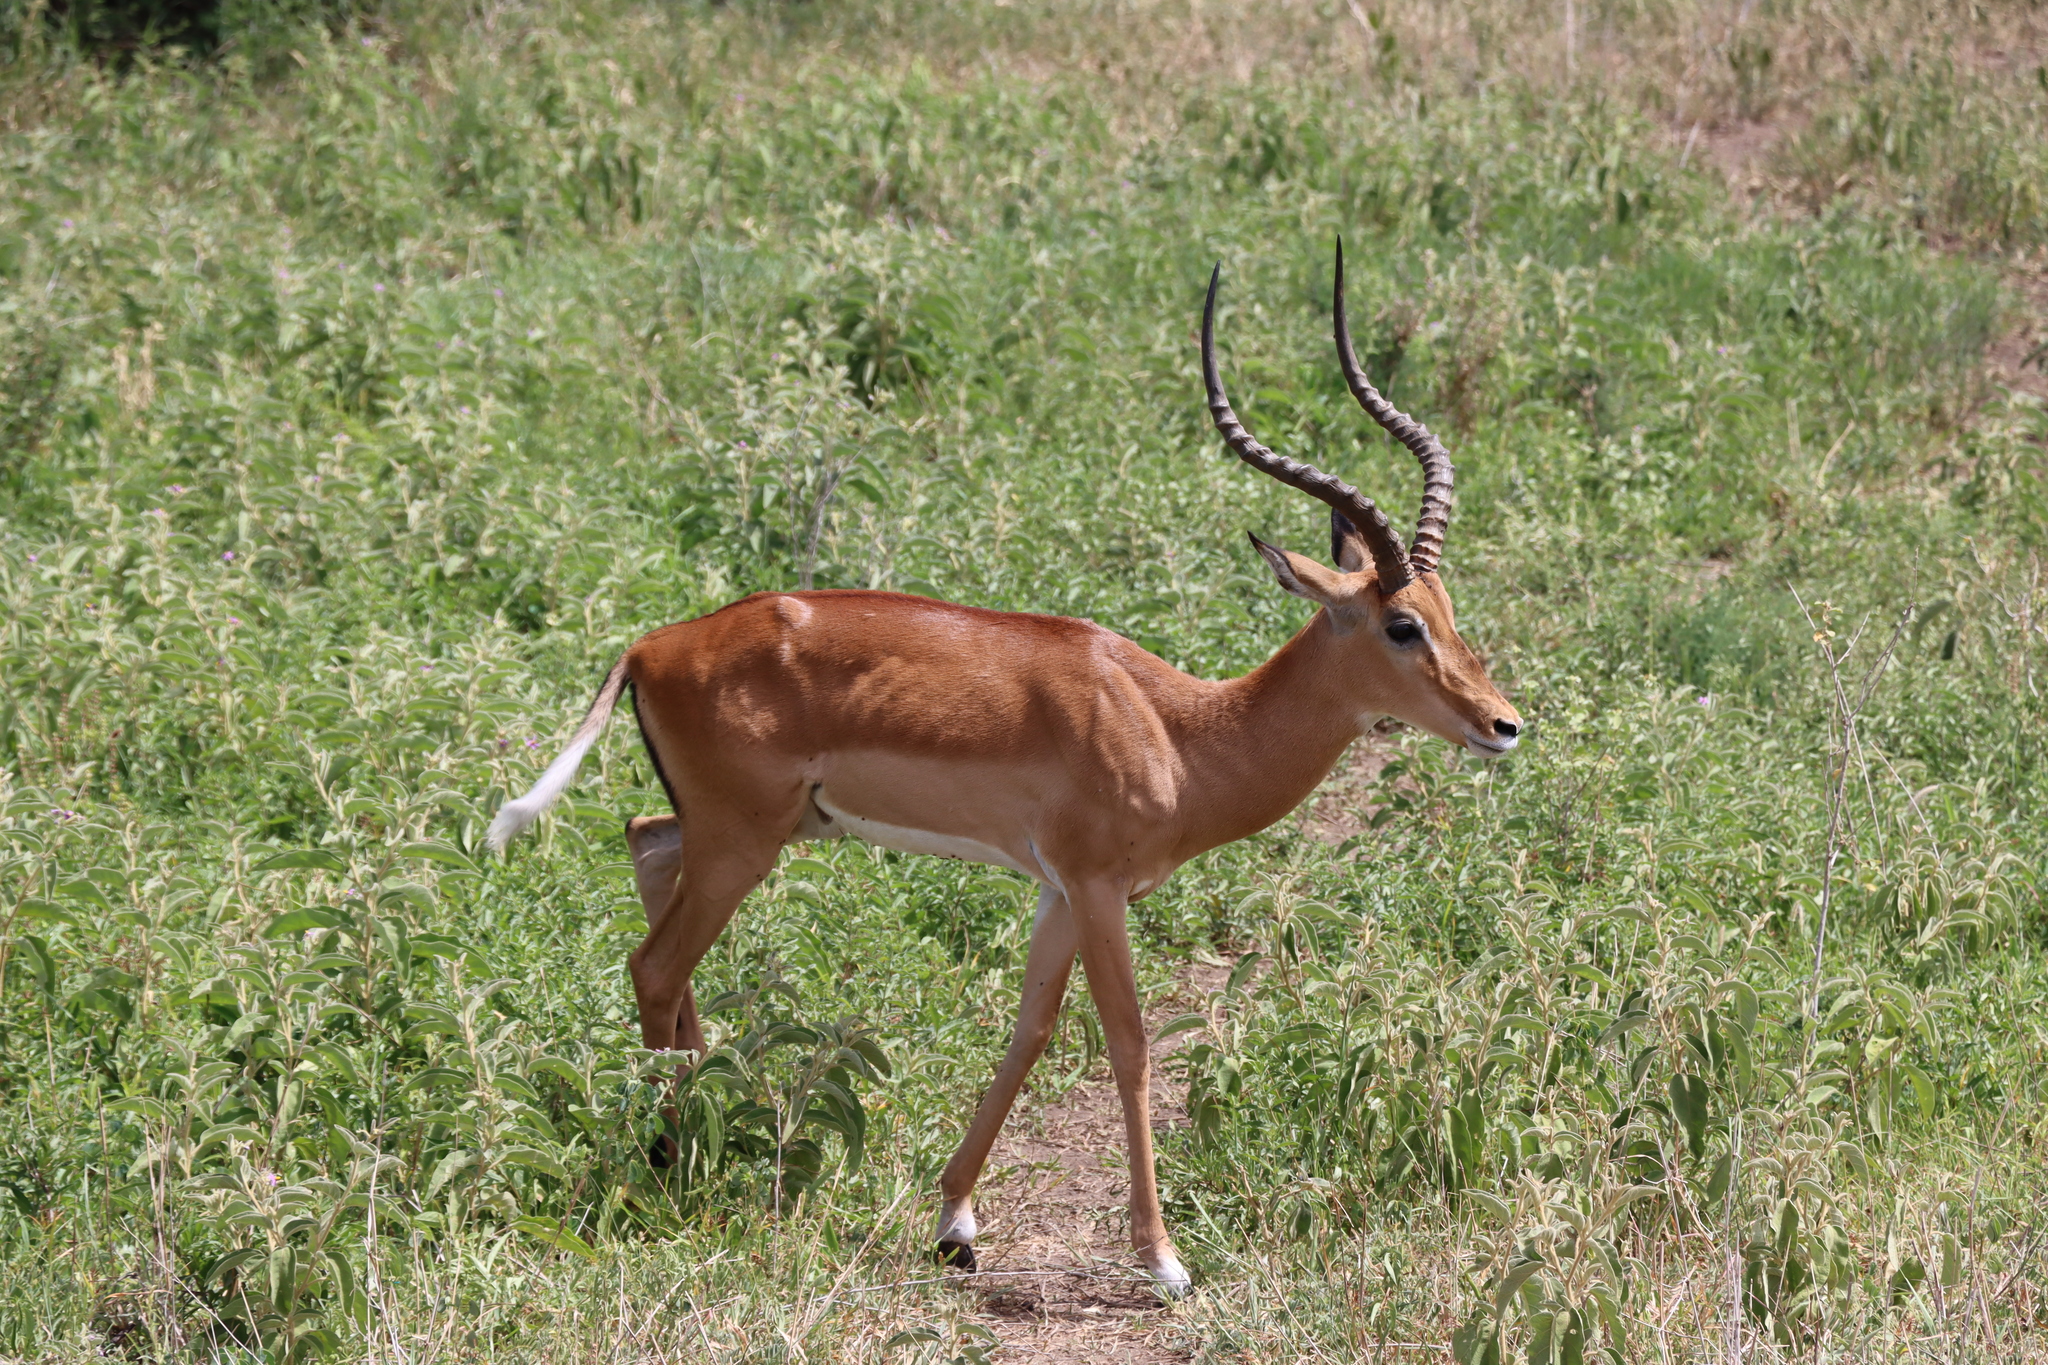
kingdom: Animalia
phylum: Chordata
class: Mammalia
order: Artiodactyla
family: Bovidae
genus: Aepyceros
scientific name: Aepyceros melampus
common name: Impala
